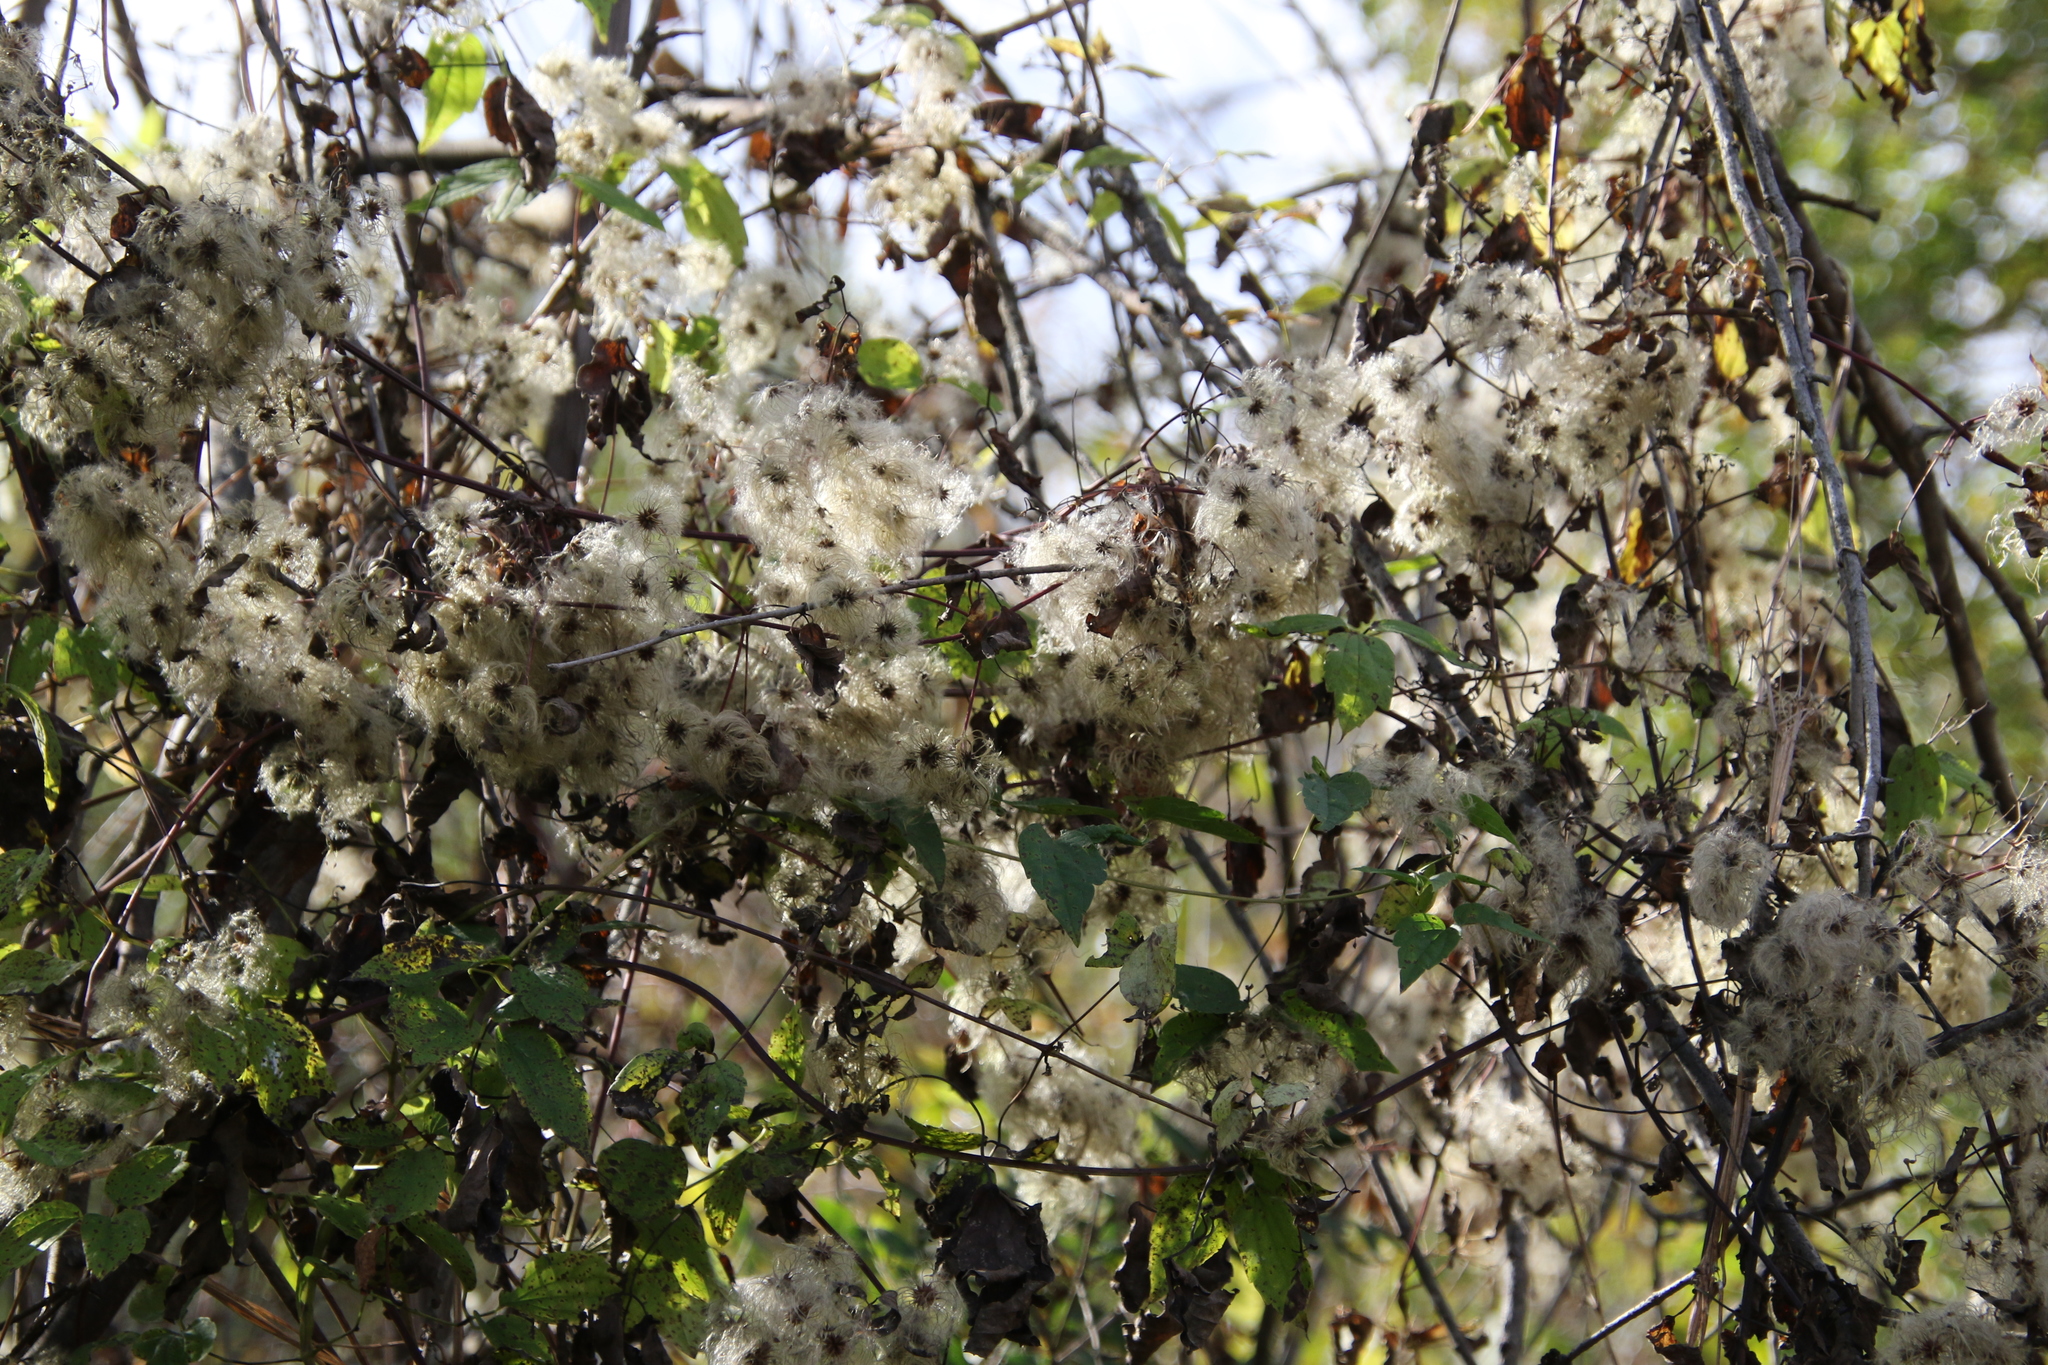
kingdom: Plantae
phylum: Tracheophyta
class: Magnoliopsida
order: Ranunculales
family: Ranunculaceae
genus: Clematis
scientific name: Clematis virginiana
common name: Virgin's-bower
